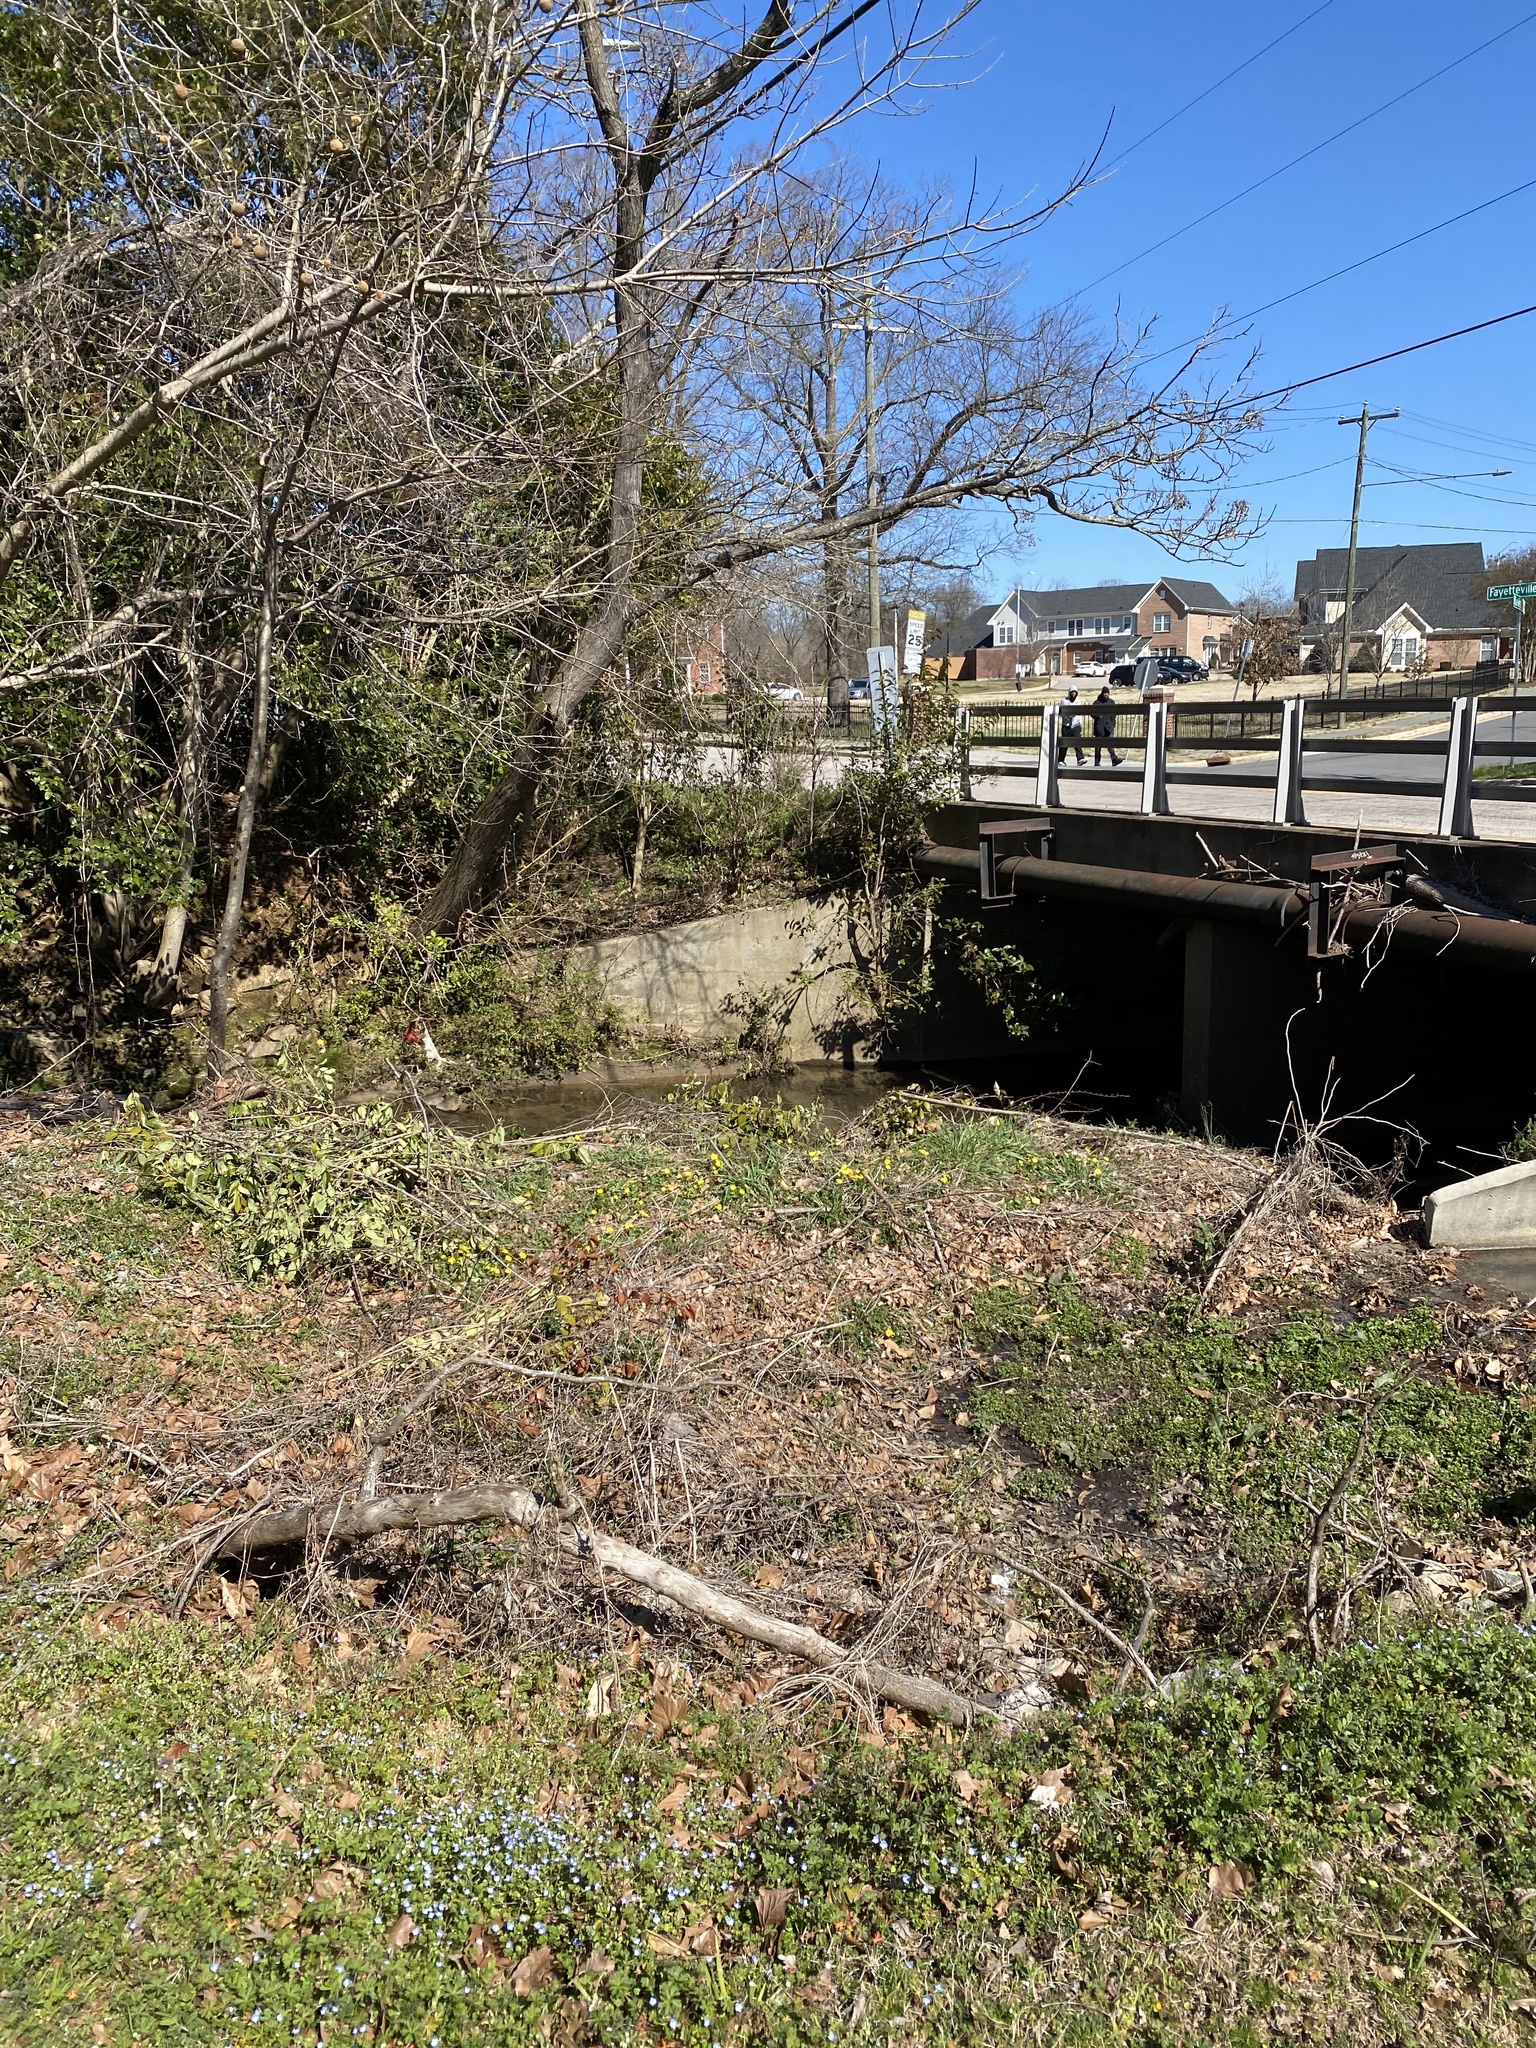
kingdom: Plantae
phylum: Tracheophyta
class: Magnoliopsida
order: Ranunculales
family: Ranunculaceae
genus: Ficaria
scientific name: Ficaria verna
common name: Lesser celandine
